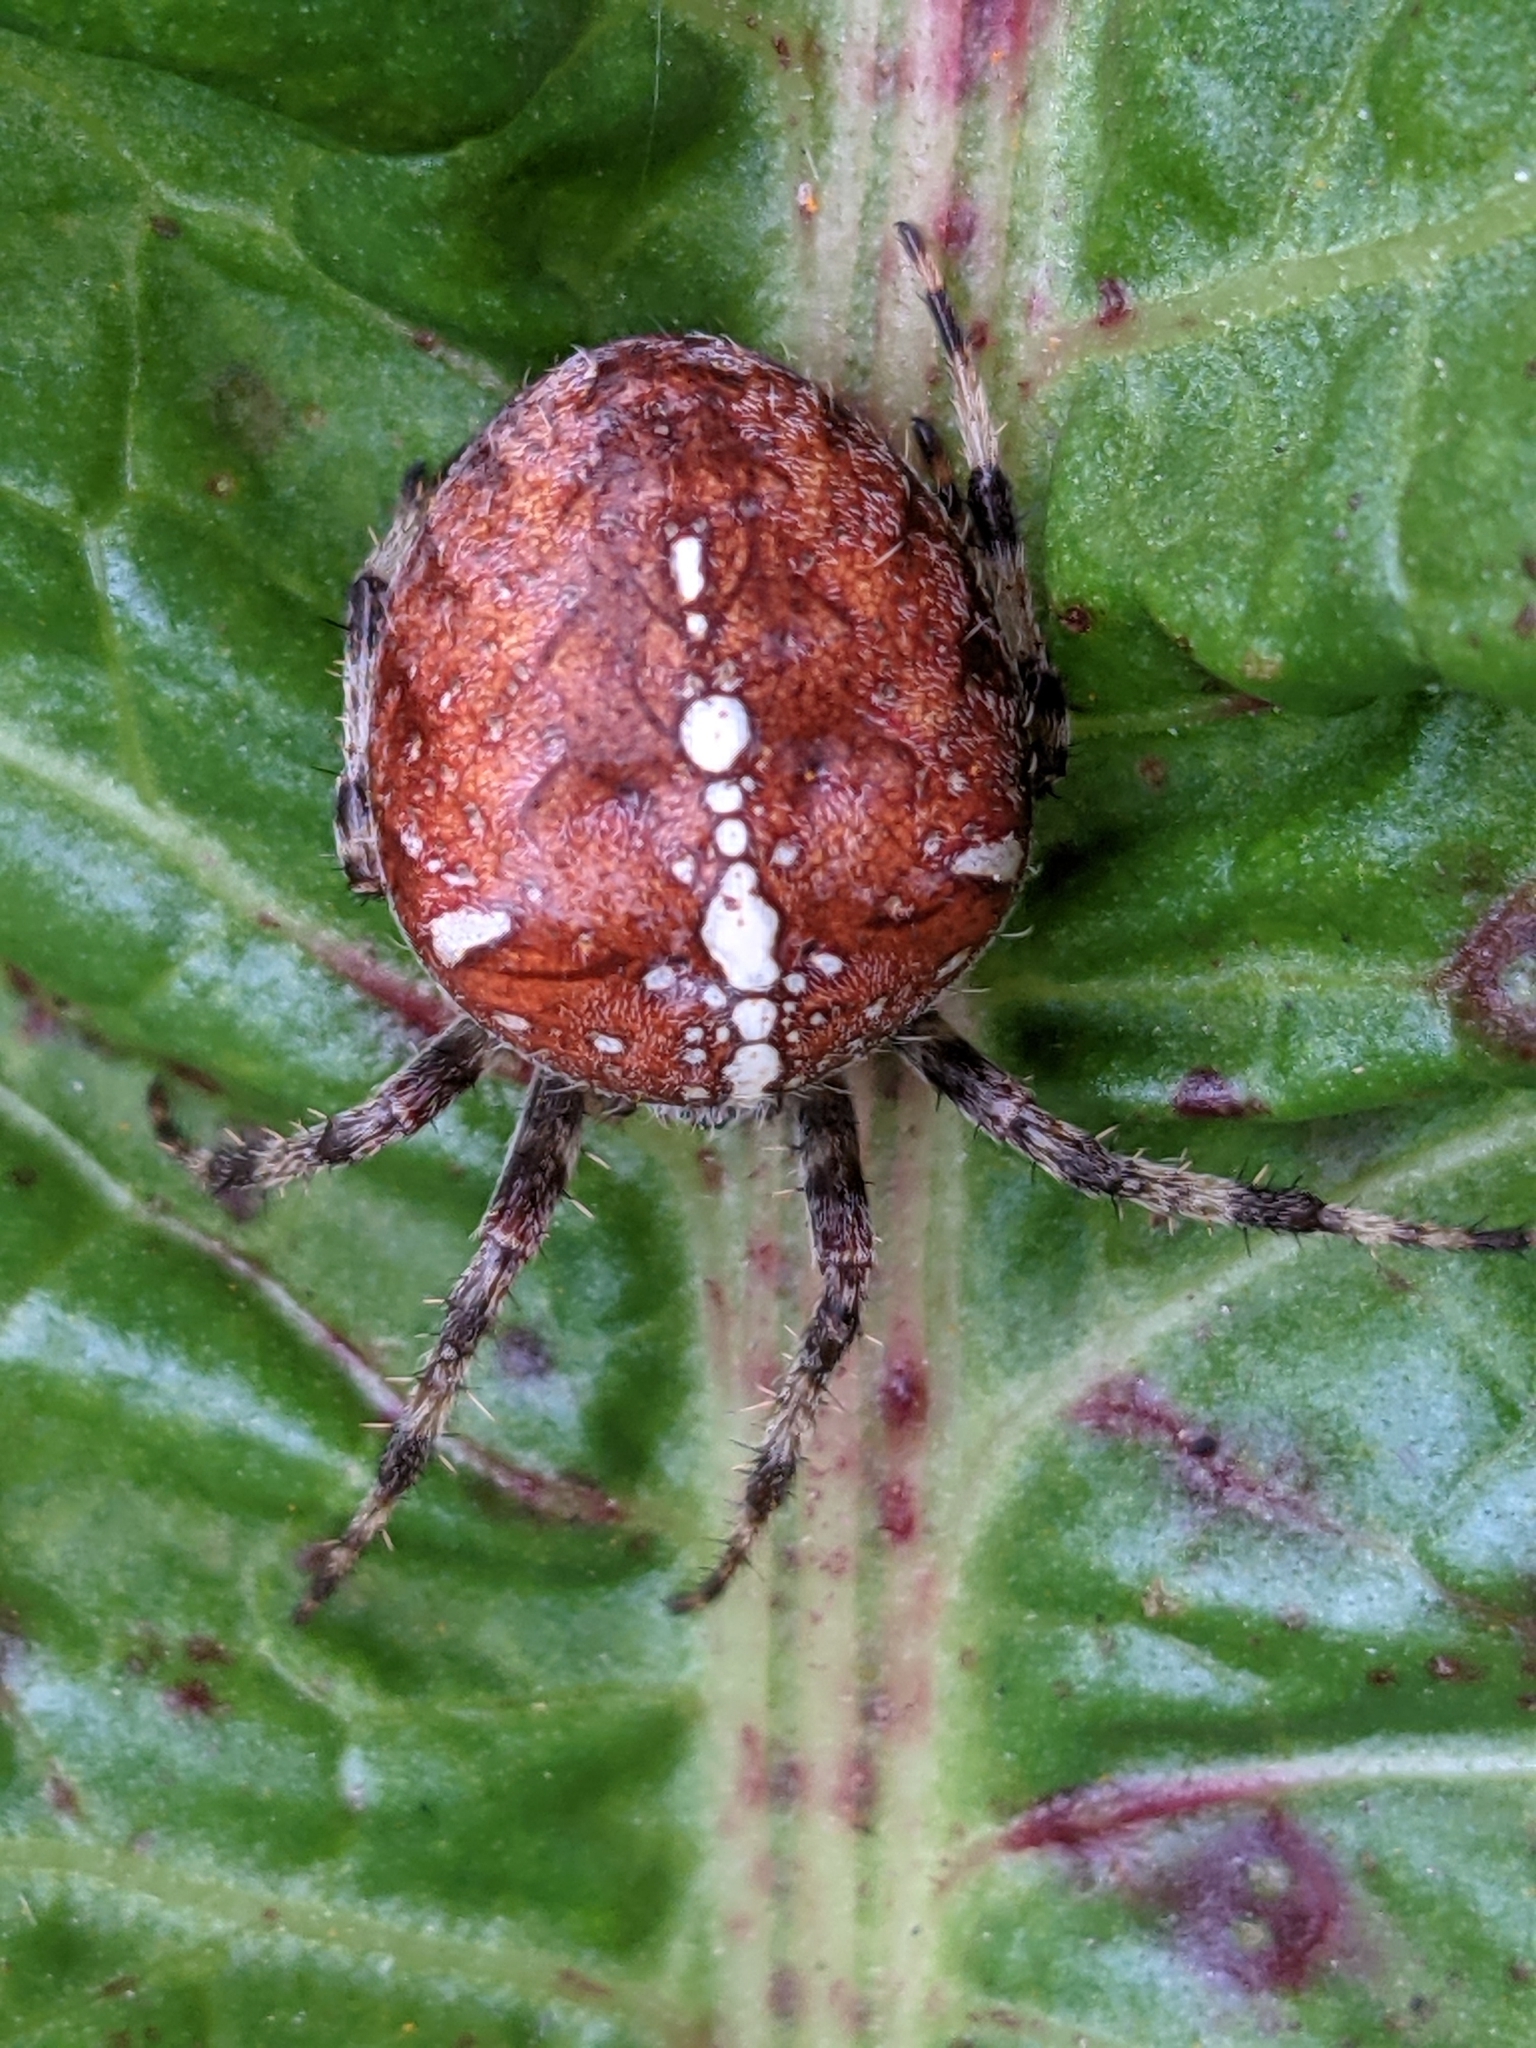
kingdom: Animalia
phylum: Arthropoda
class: Arachnida
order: Araneae
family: Araneidae
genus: Araneus
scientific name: Araneus diadematus
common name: Cross orbweaver
